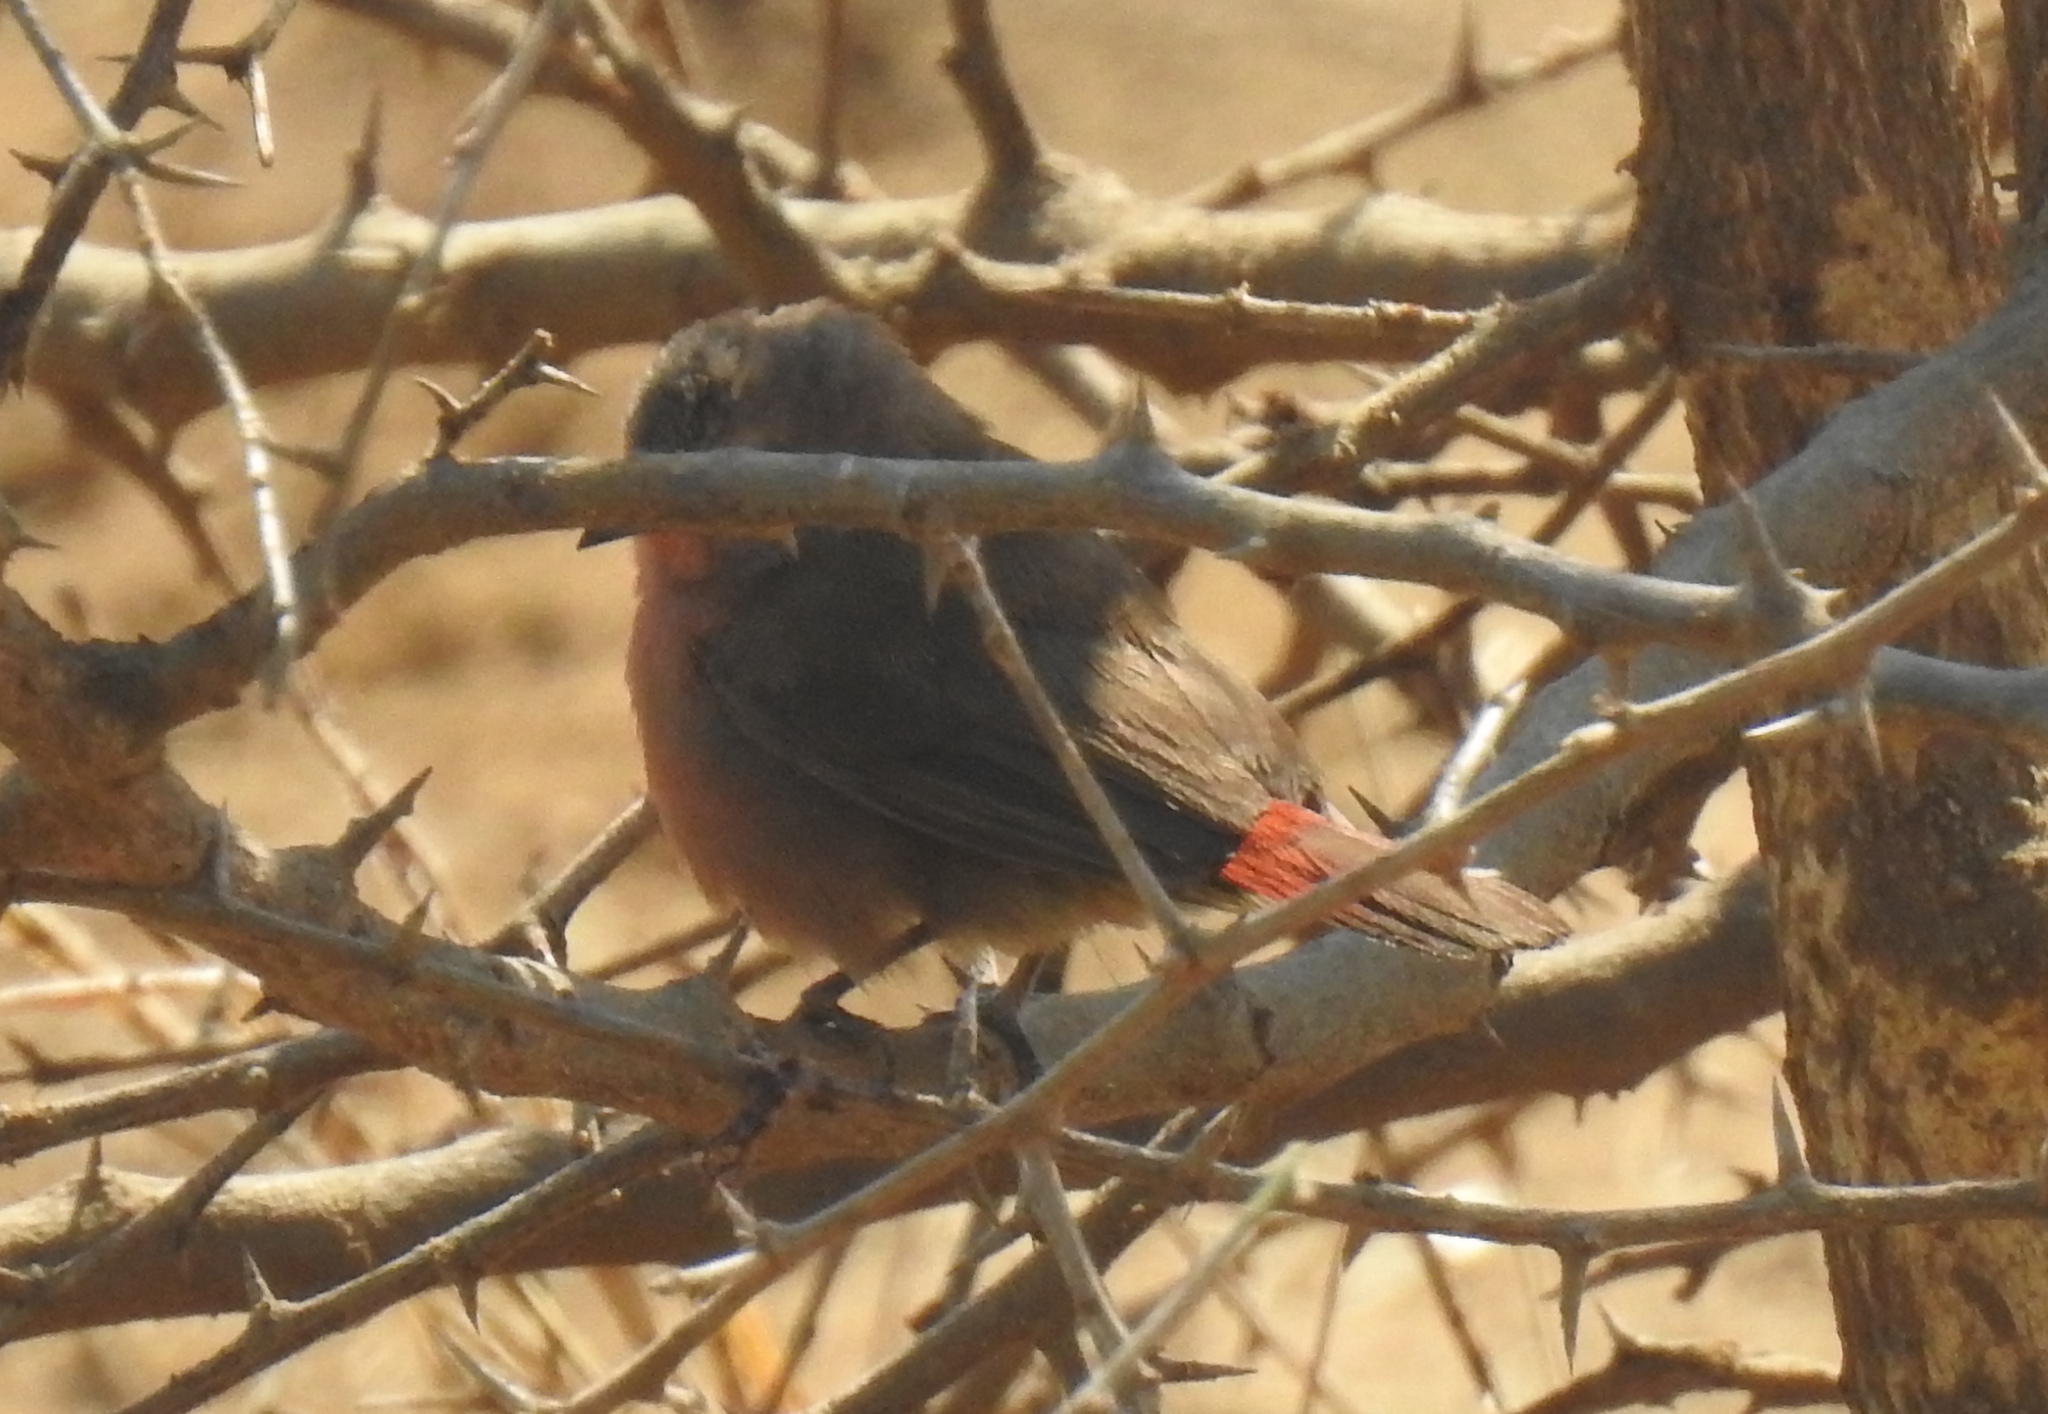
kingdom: Animalia
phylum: Chordata
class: Aves
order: Passeriformes
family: Estrildidae
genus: Lagonosticta
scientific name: Lagonosticta rhodopareia
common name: Jameson's firefinch
